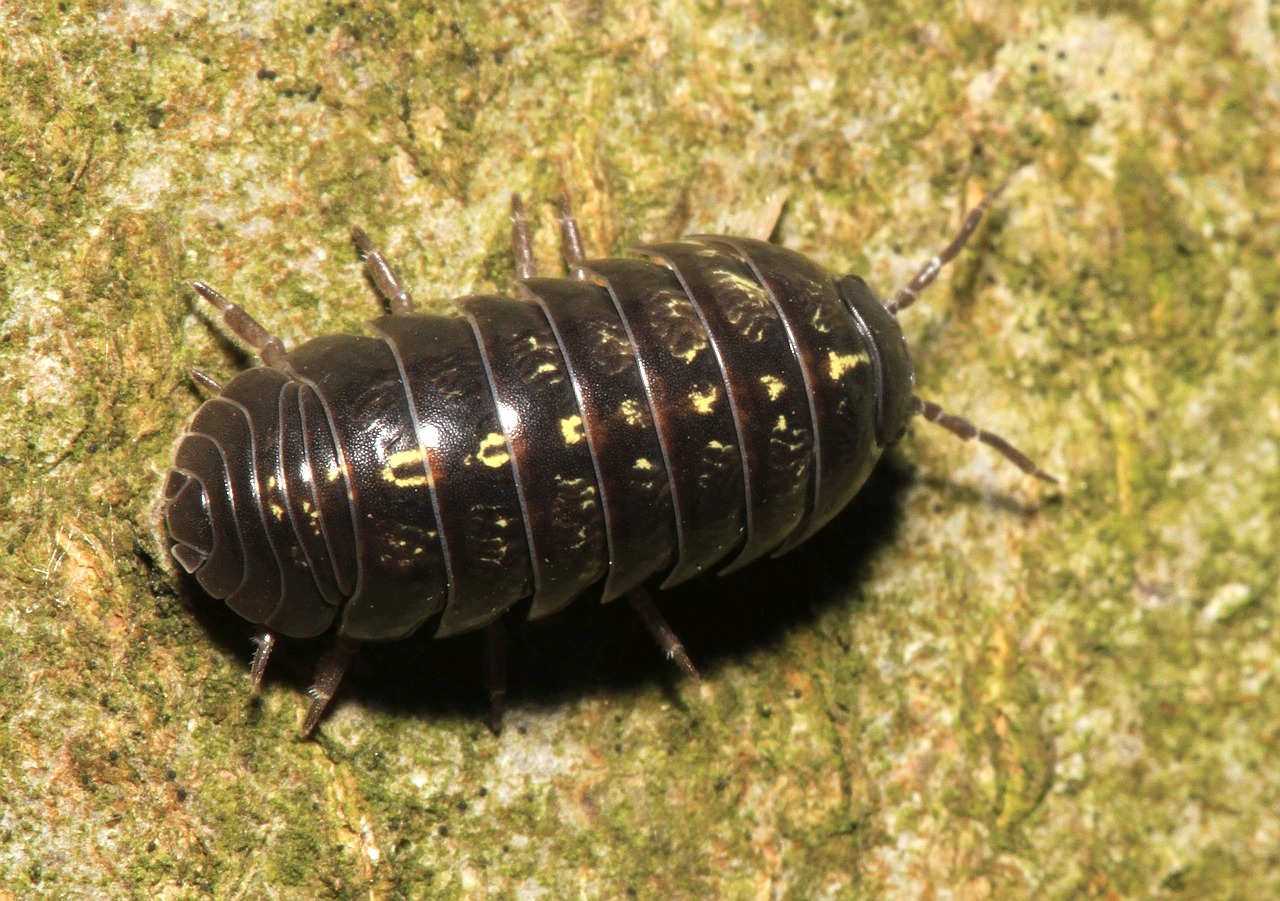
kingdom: Animalia
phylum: Arthropoda
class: Malacostraca
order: Isopoda
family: Armadillidiidae
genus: Armadillidium
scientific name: Armadillidium vulgare
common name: Common pill woodlouse
